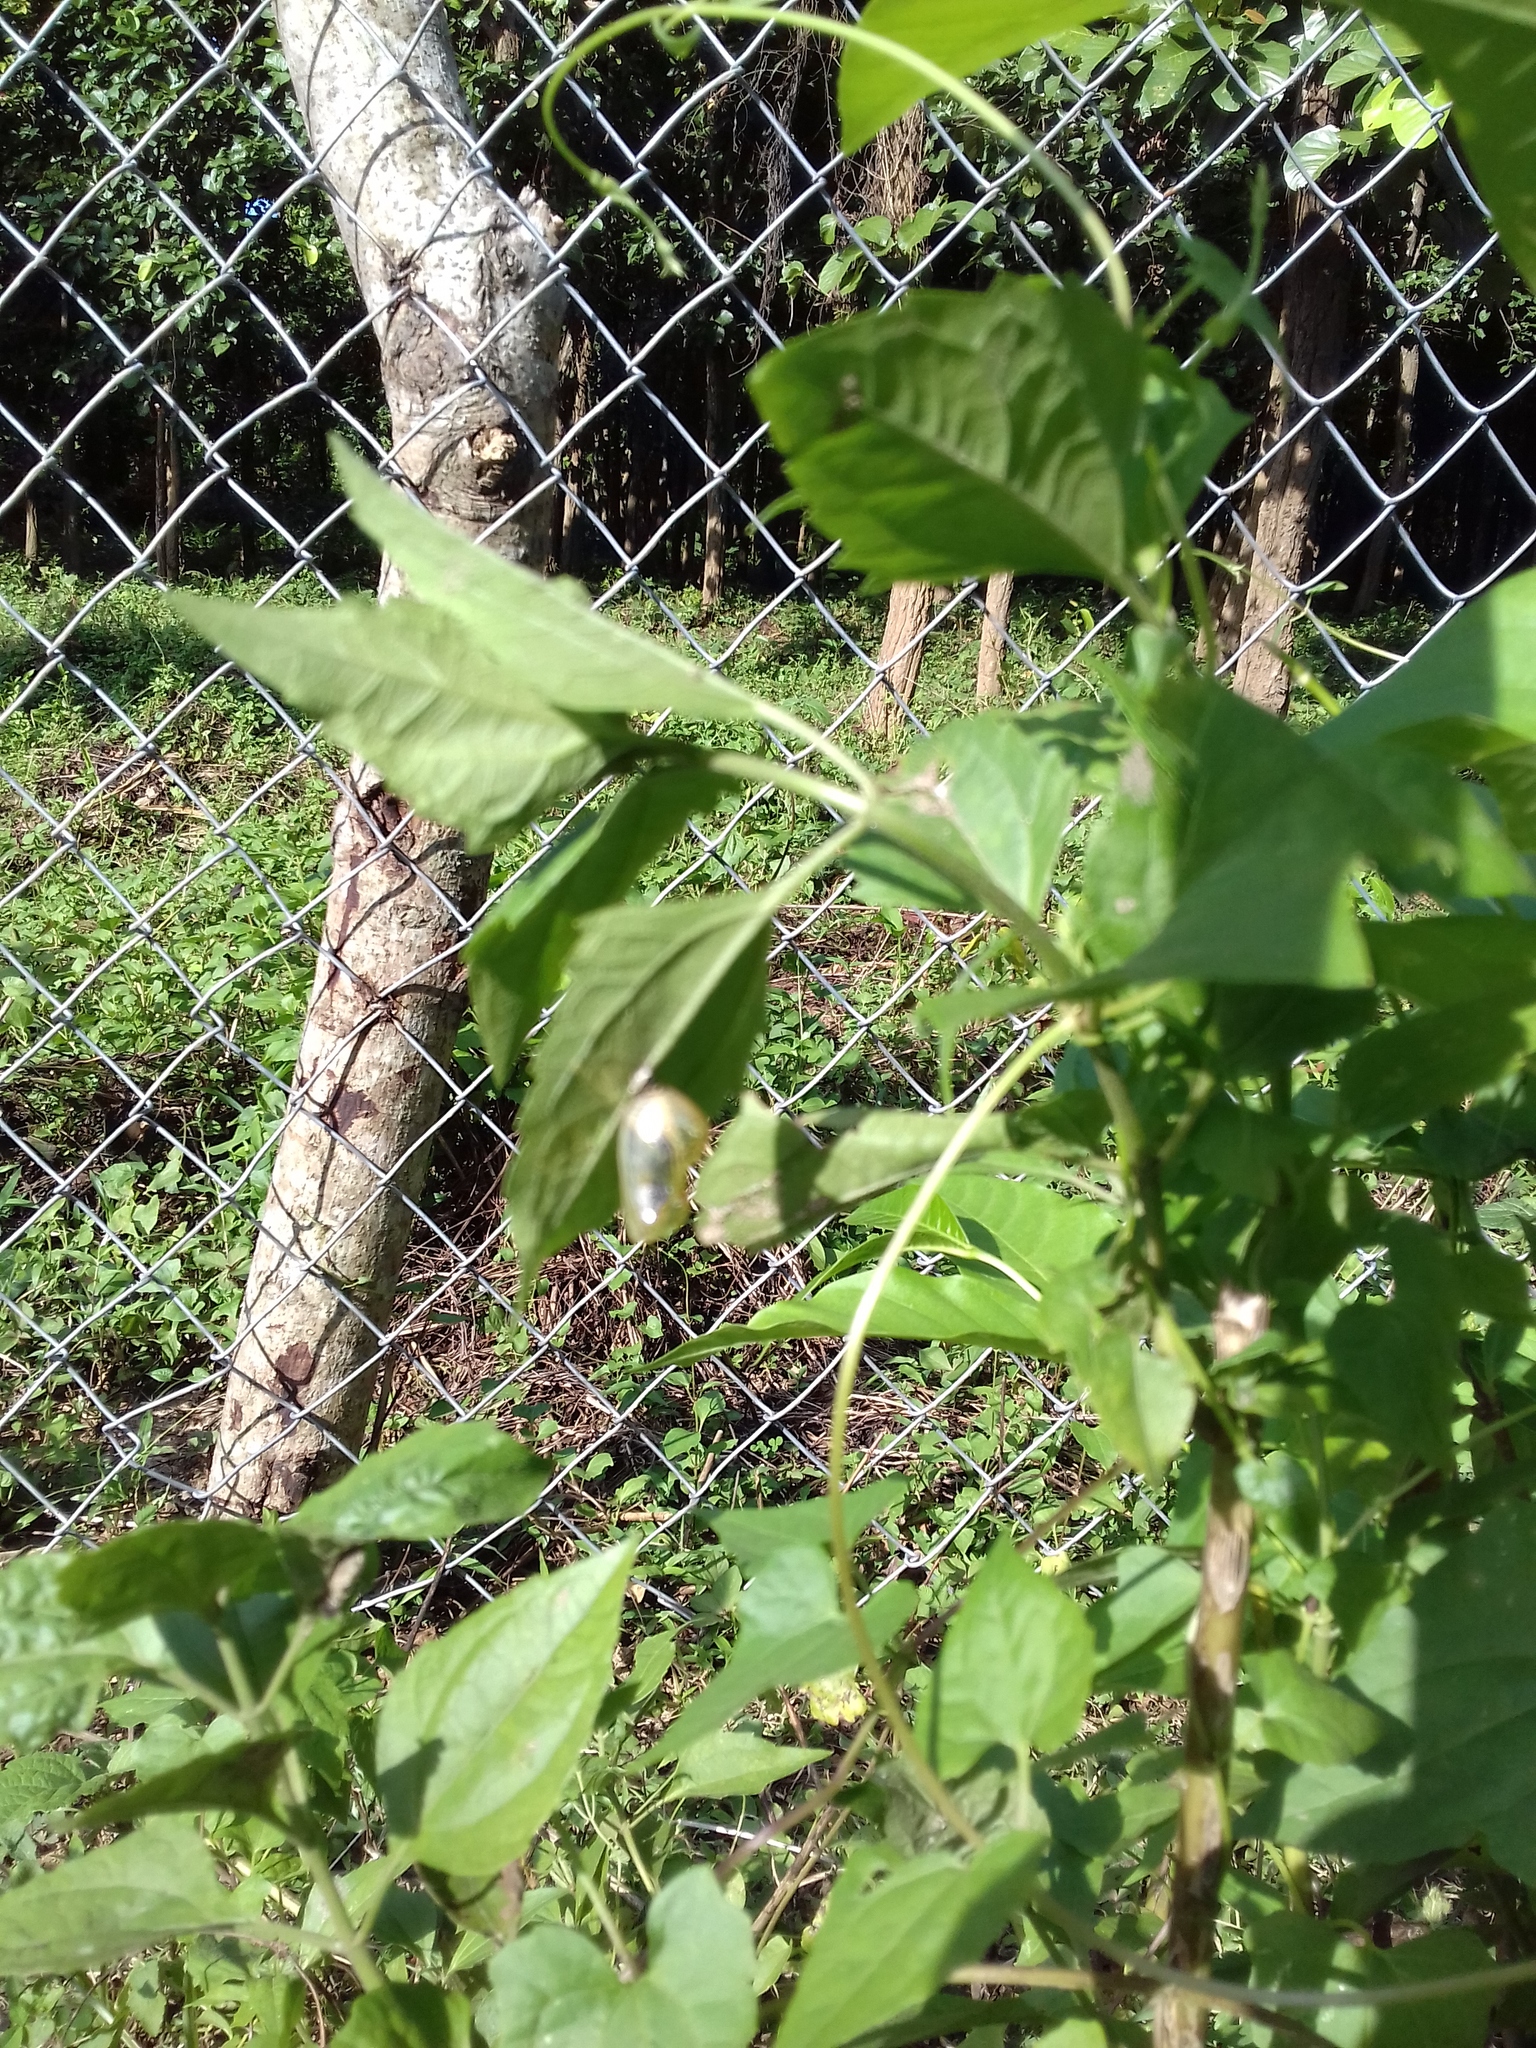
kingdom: Animalia
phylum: Arthropoda
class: Insecta
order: Lepidoptera
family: Nymphalidae
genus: Euploea
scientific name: Euploea core
